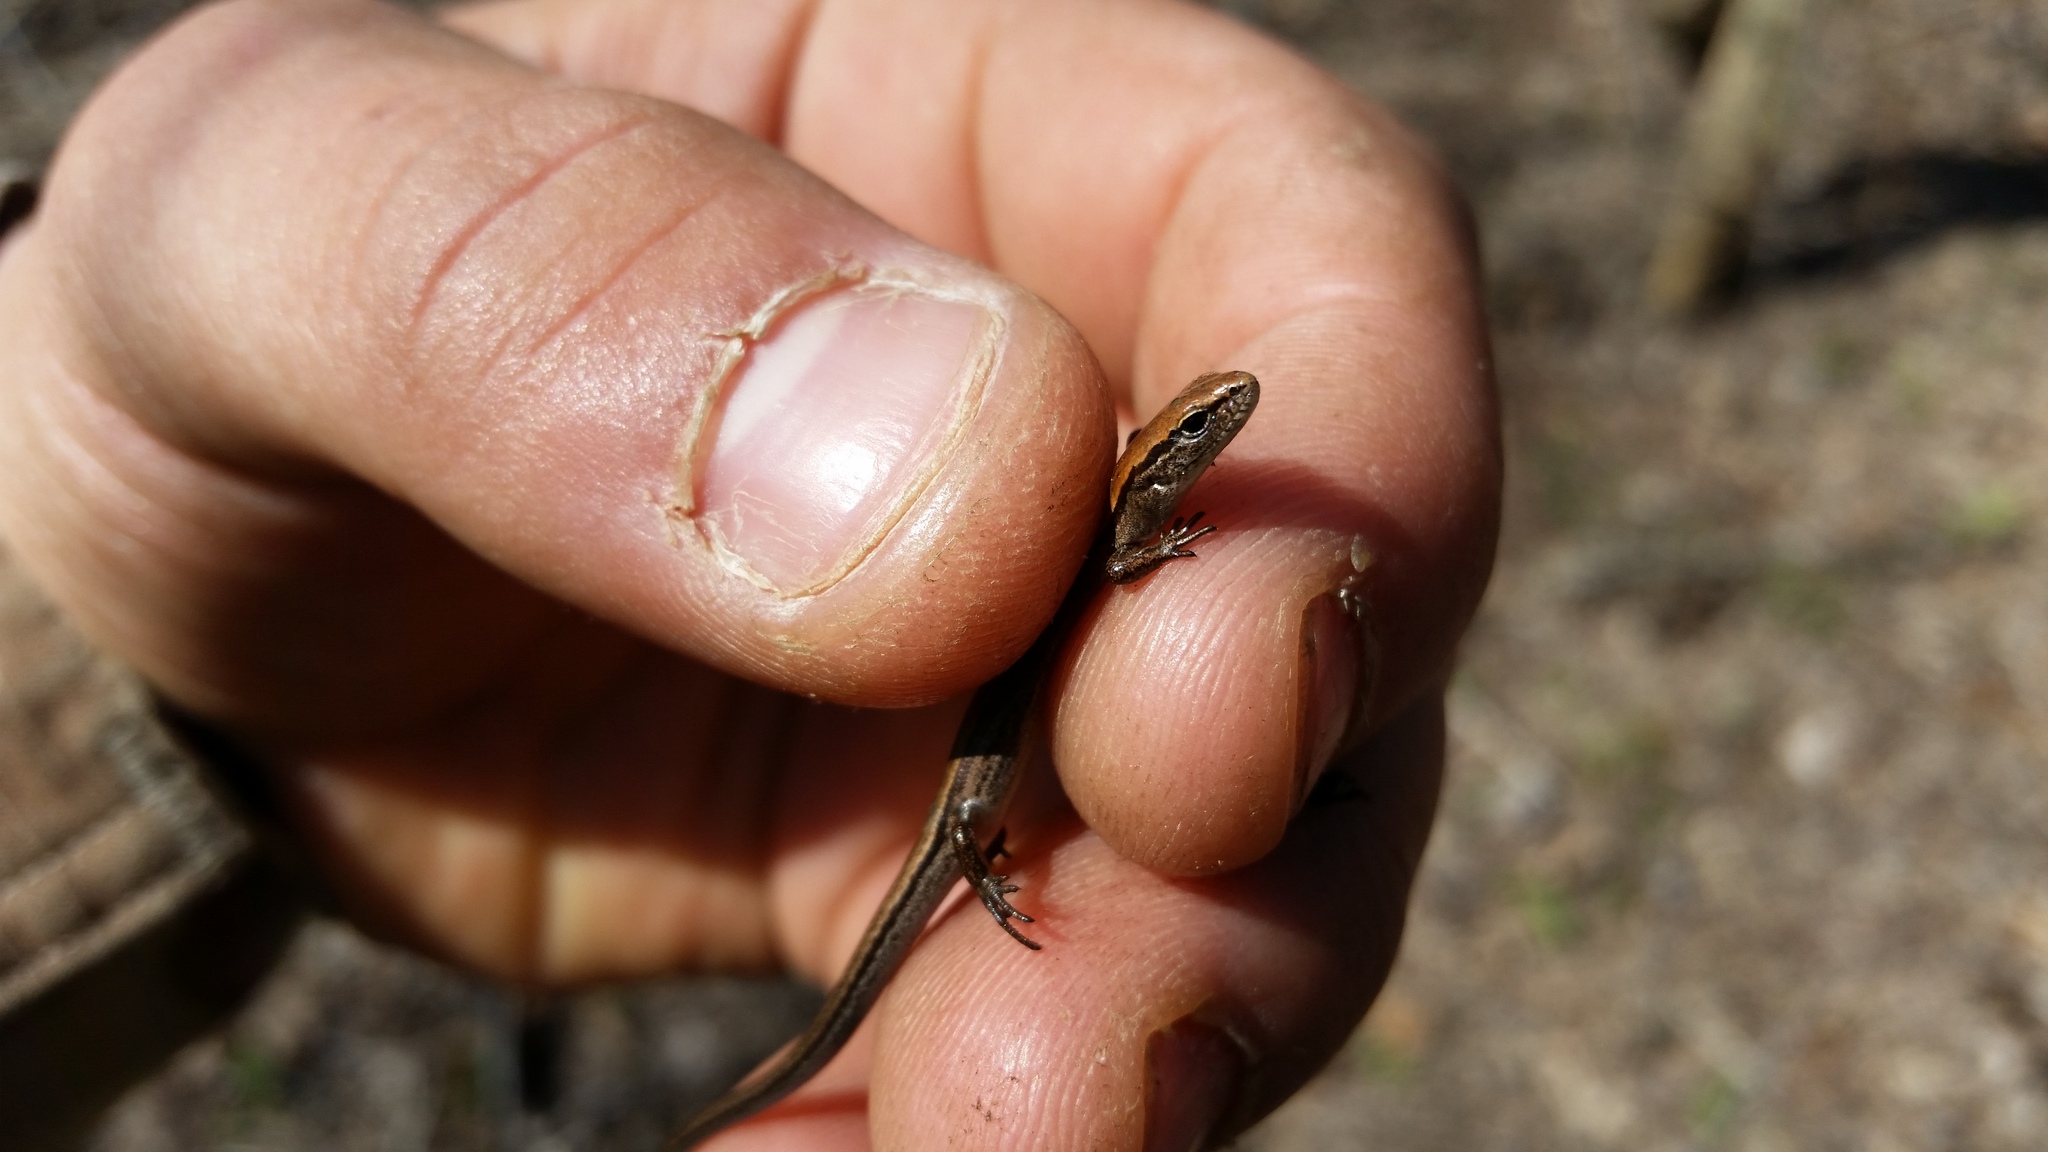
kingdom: Animalia
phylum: Chordata
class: Squamata
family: Scincidae
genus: Scincella
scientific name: Scincella lateralis
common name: Ground skink
